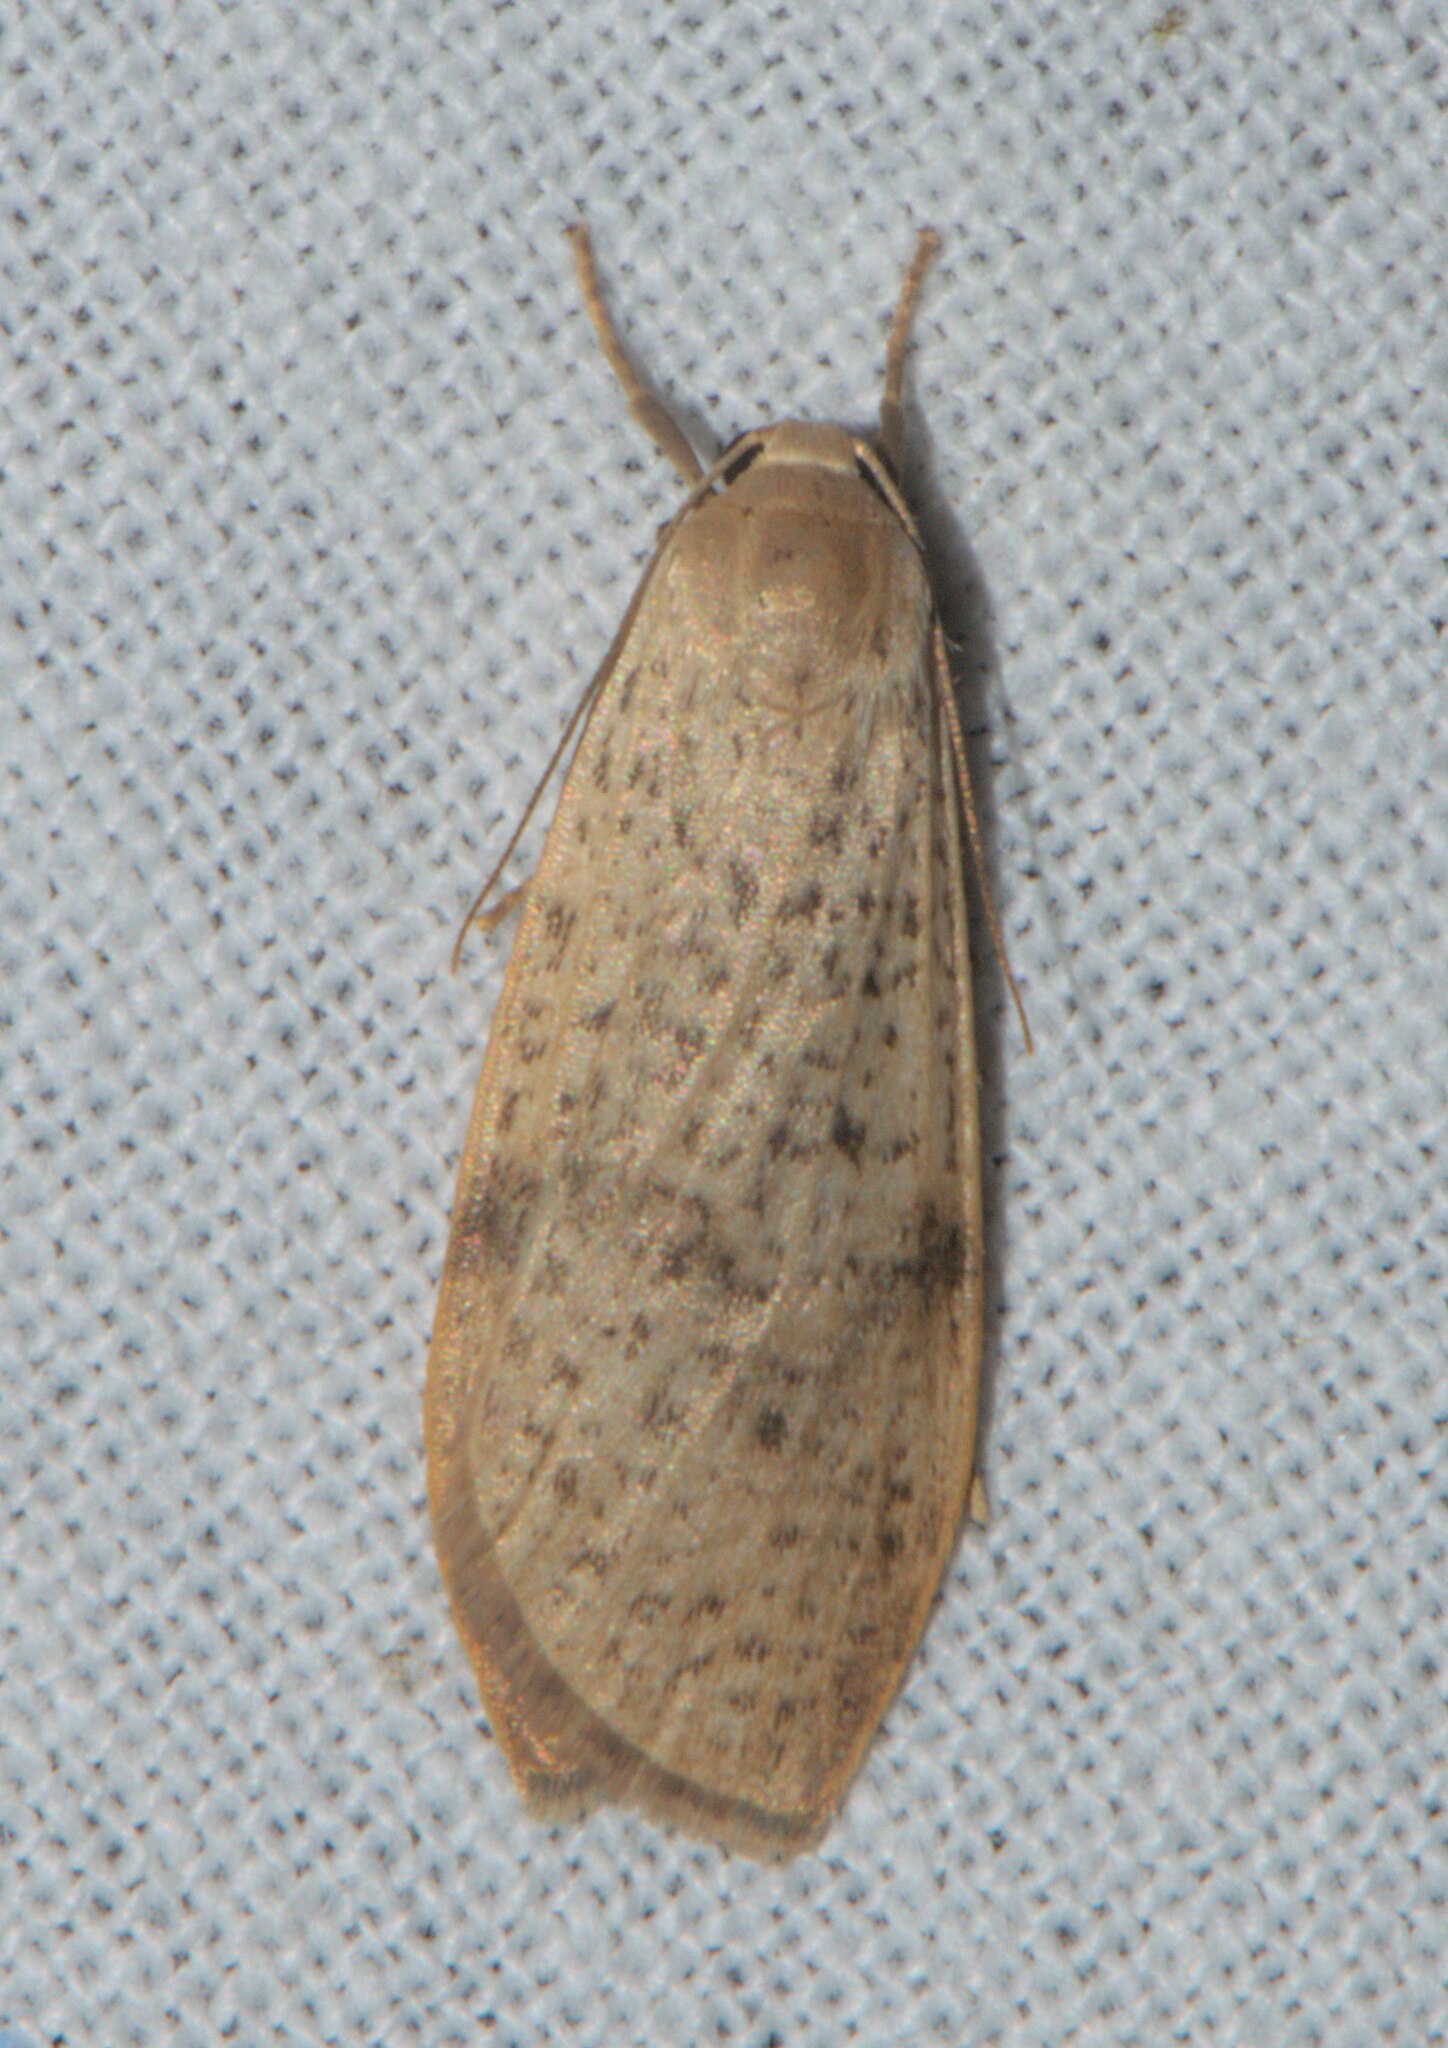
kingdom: Animalia
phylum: Arthropoda
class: Insecta
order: Lepidoptera
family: Erebidae
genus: Dolgoma
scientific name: Dolgoma reticulata
